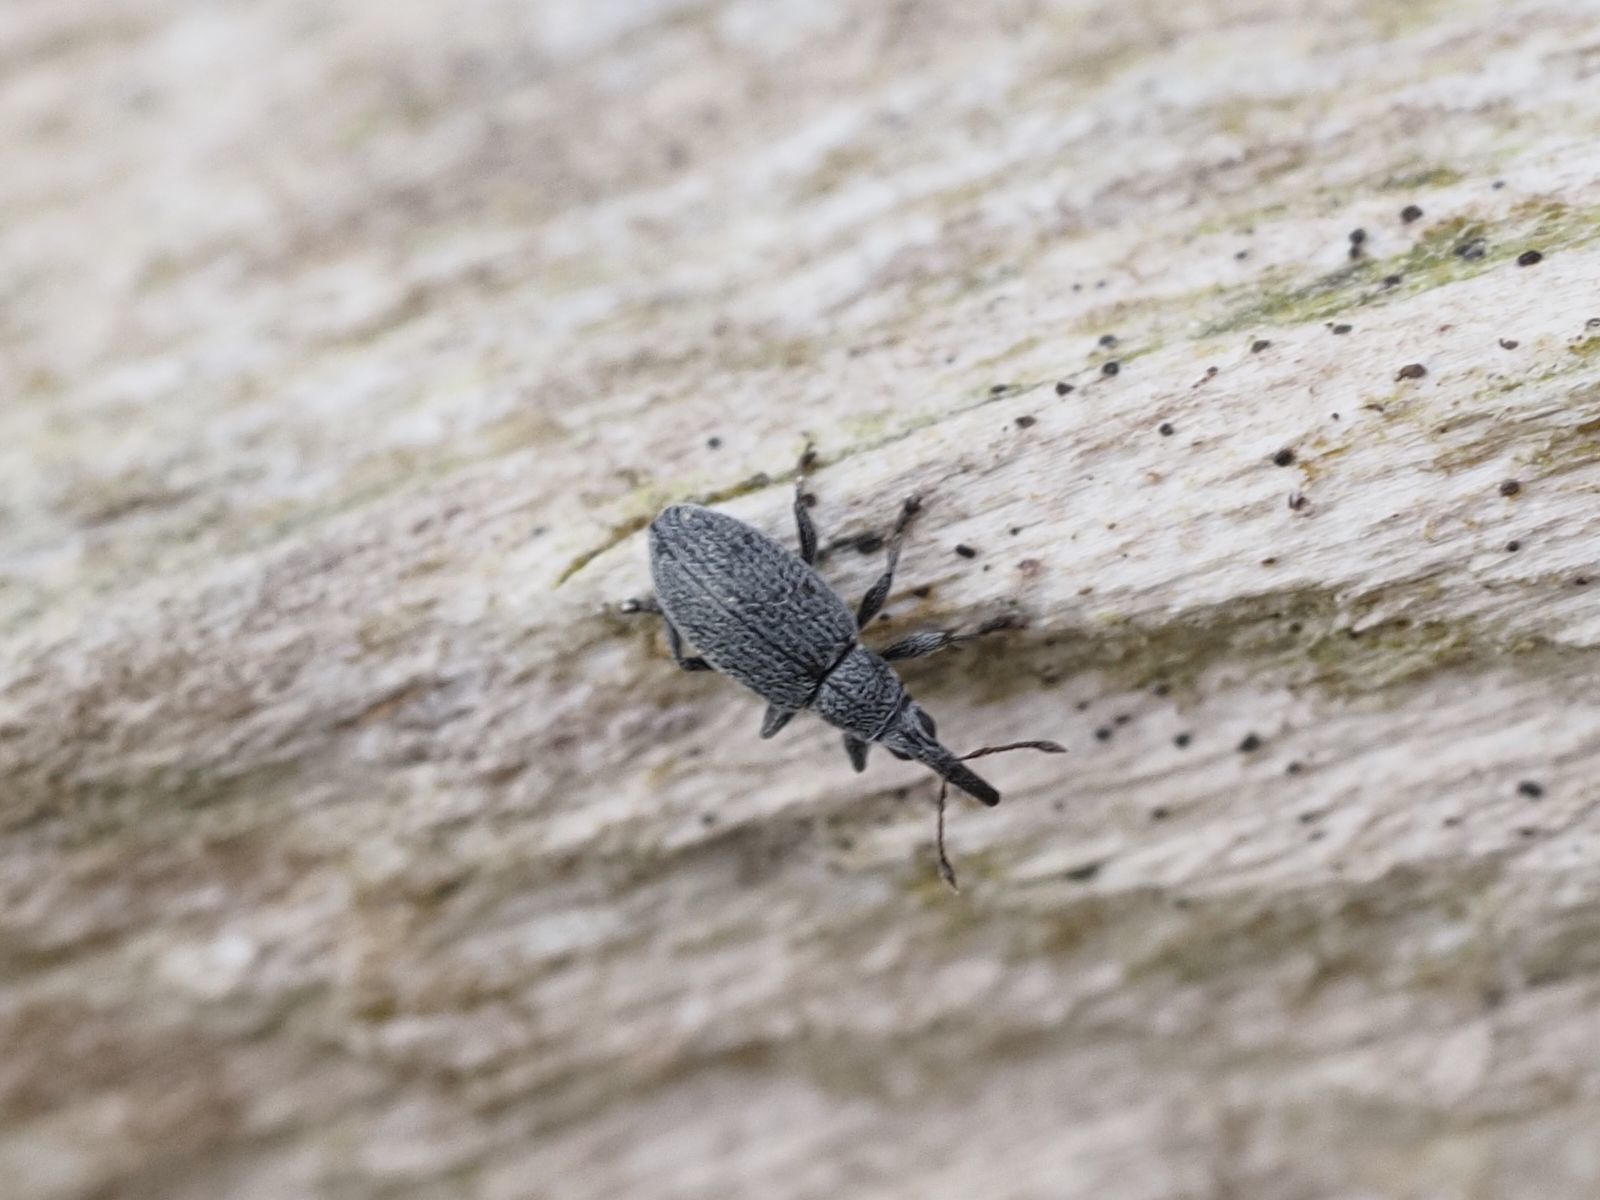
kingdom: Animalia
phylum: Arthropoda
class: Insecta
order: Coleoptera
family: Apionidae
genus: Catapion
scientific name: Catapion seniculus
